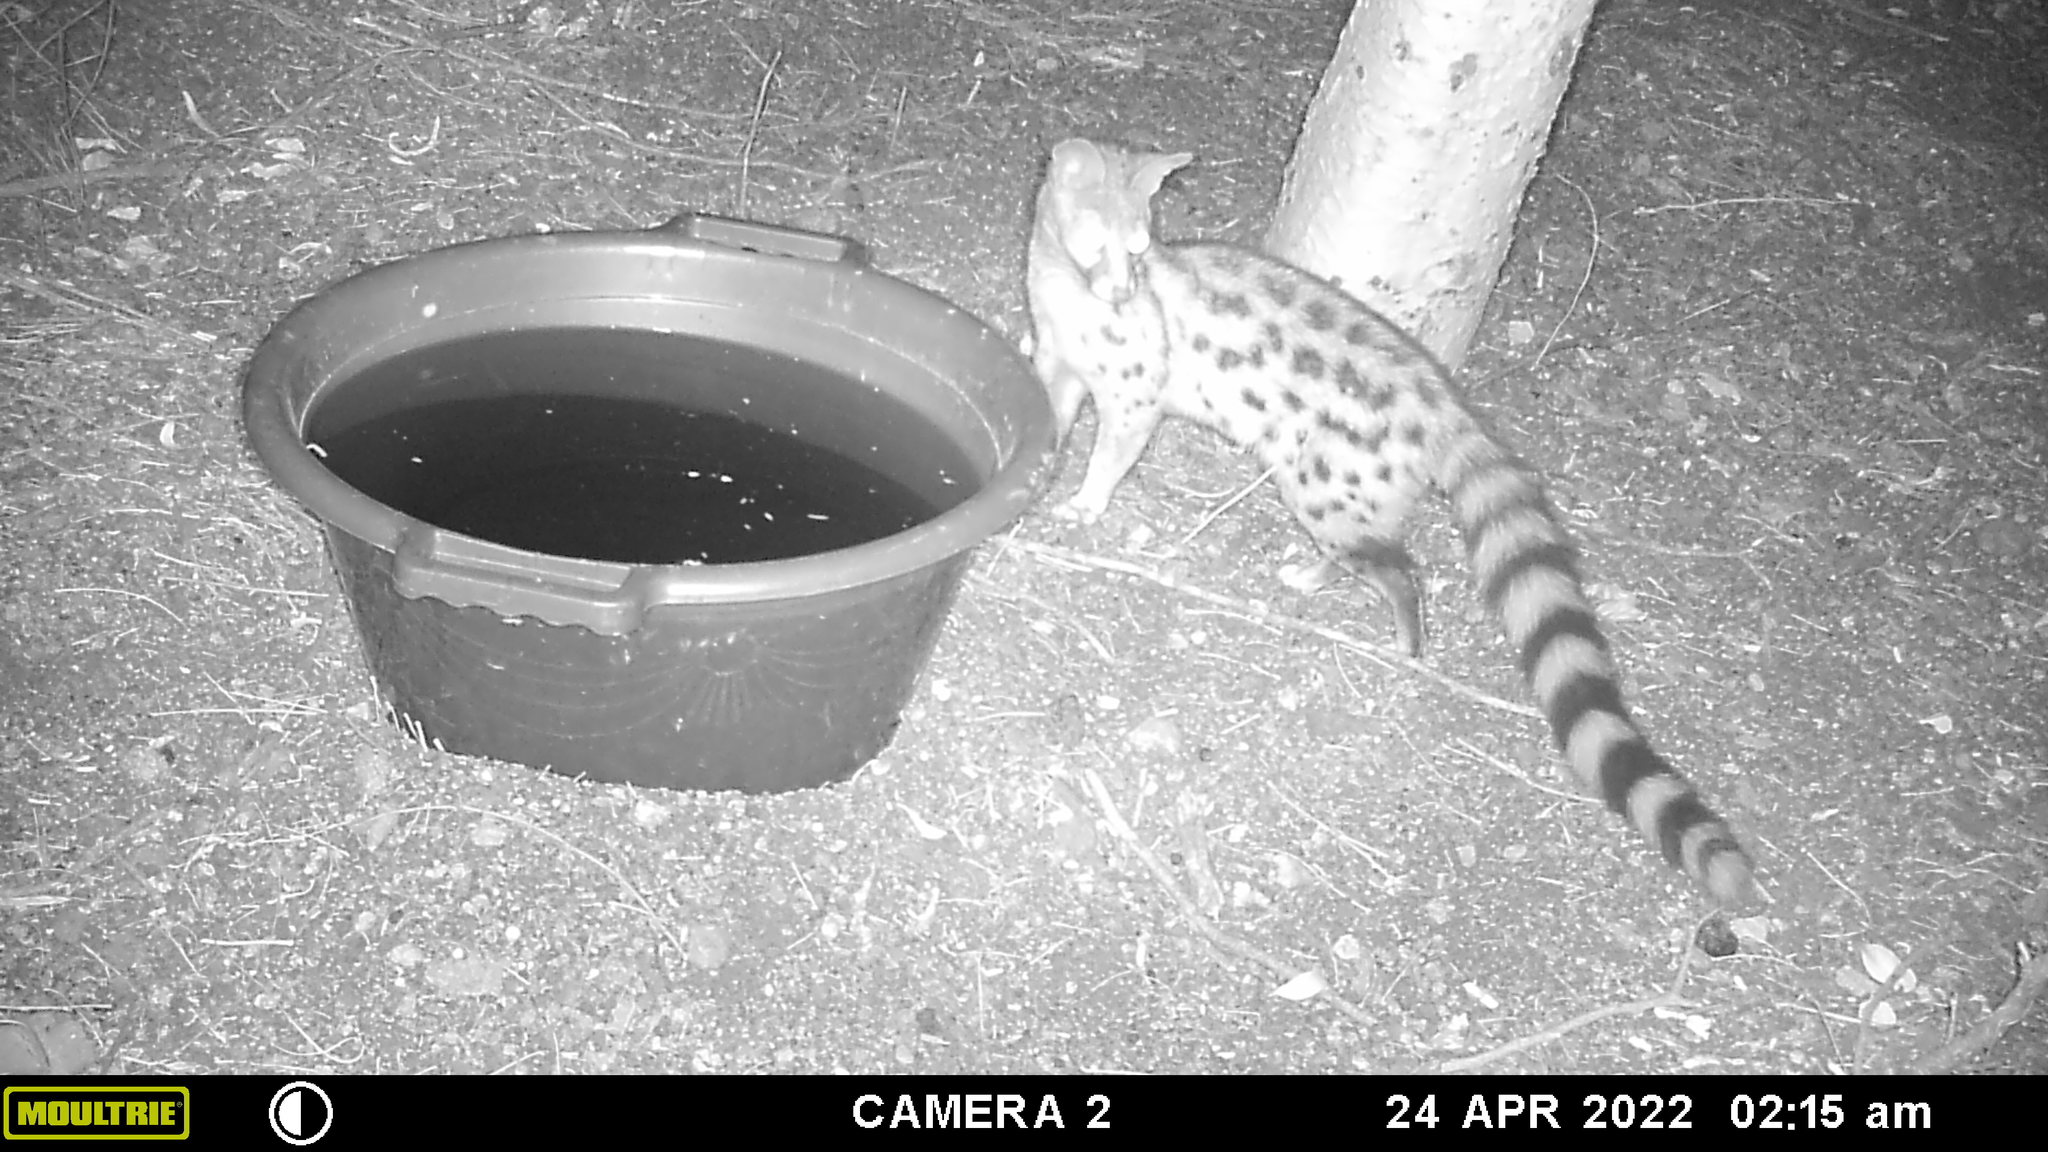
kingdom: Animalia
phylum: Chordata
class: Mammalia
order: Carnivora
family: Viverridae
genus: Genetta
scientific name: Genetta genetta
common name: Common genet
